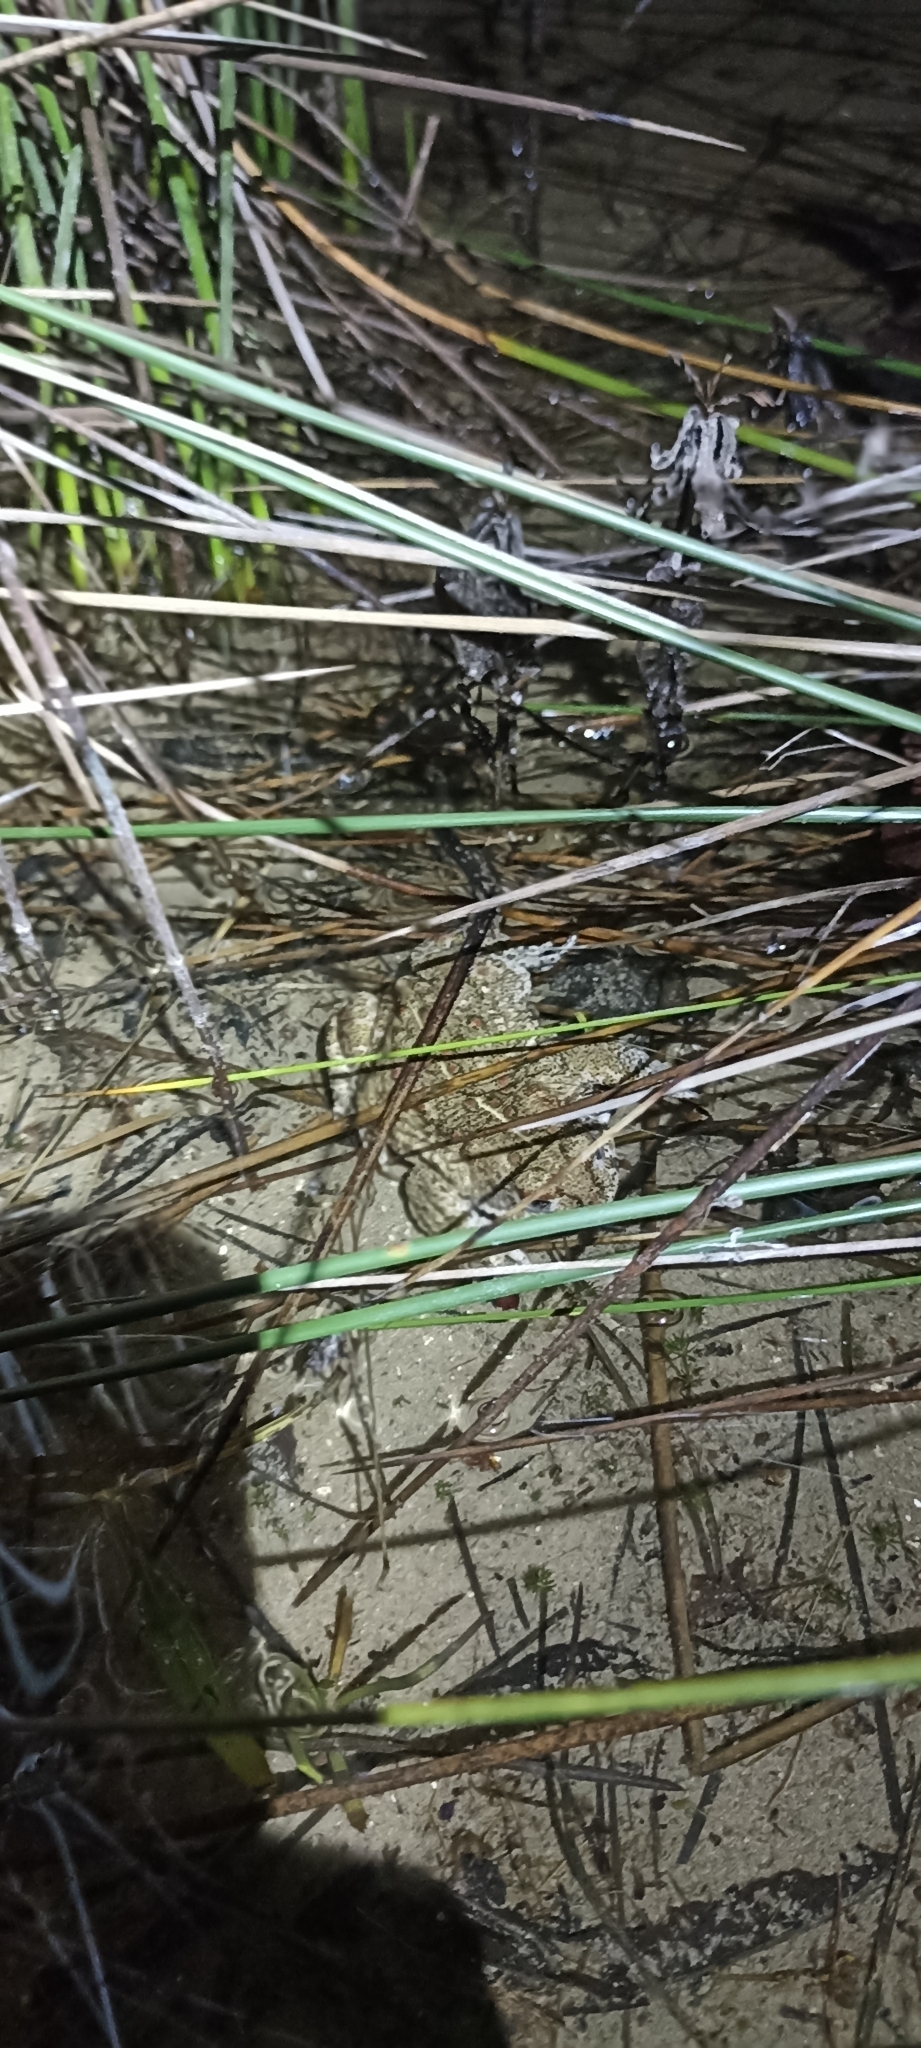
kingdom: Animalia
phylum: Chordata
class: Amphibia
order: Anura
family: Bufonidae
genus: Epidalea
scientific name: Epidalea calamita
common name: Natterjack toad
